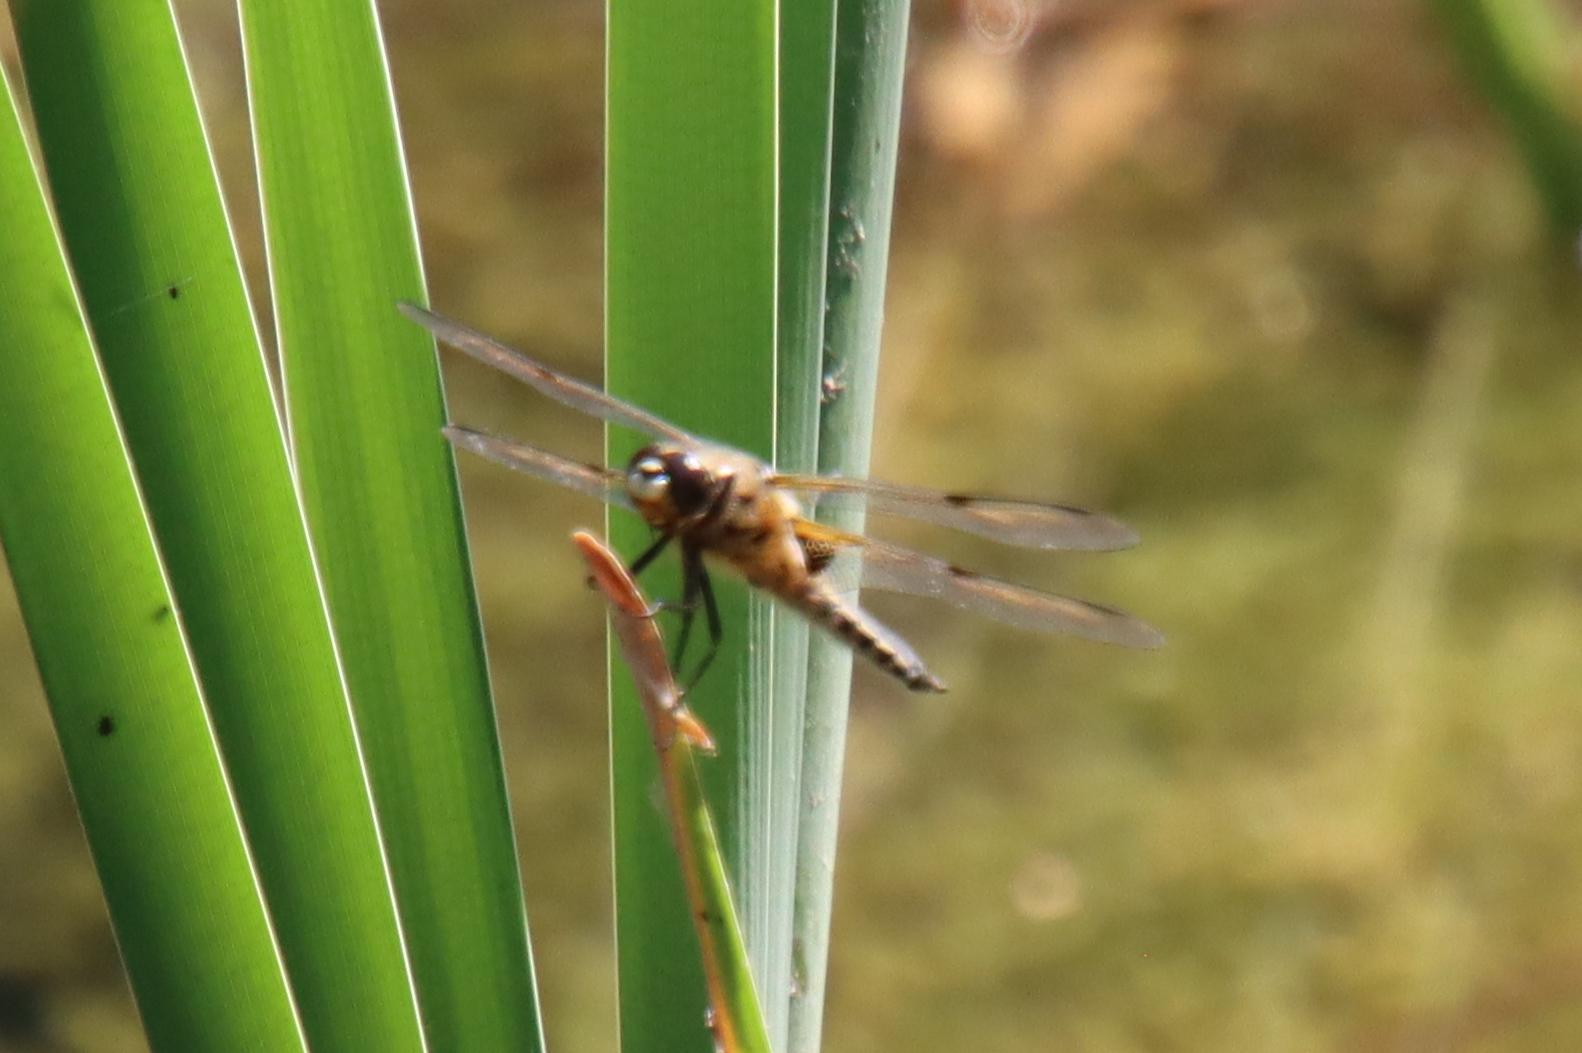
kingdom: Animalia
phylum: Arthropoda
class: Insecta
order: Odonata
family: Libellulidae
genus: Libellula
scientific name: Libellula quadrimaculata
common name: Four-spotted chaser
